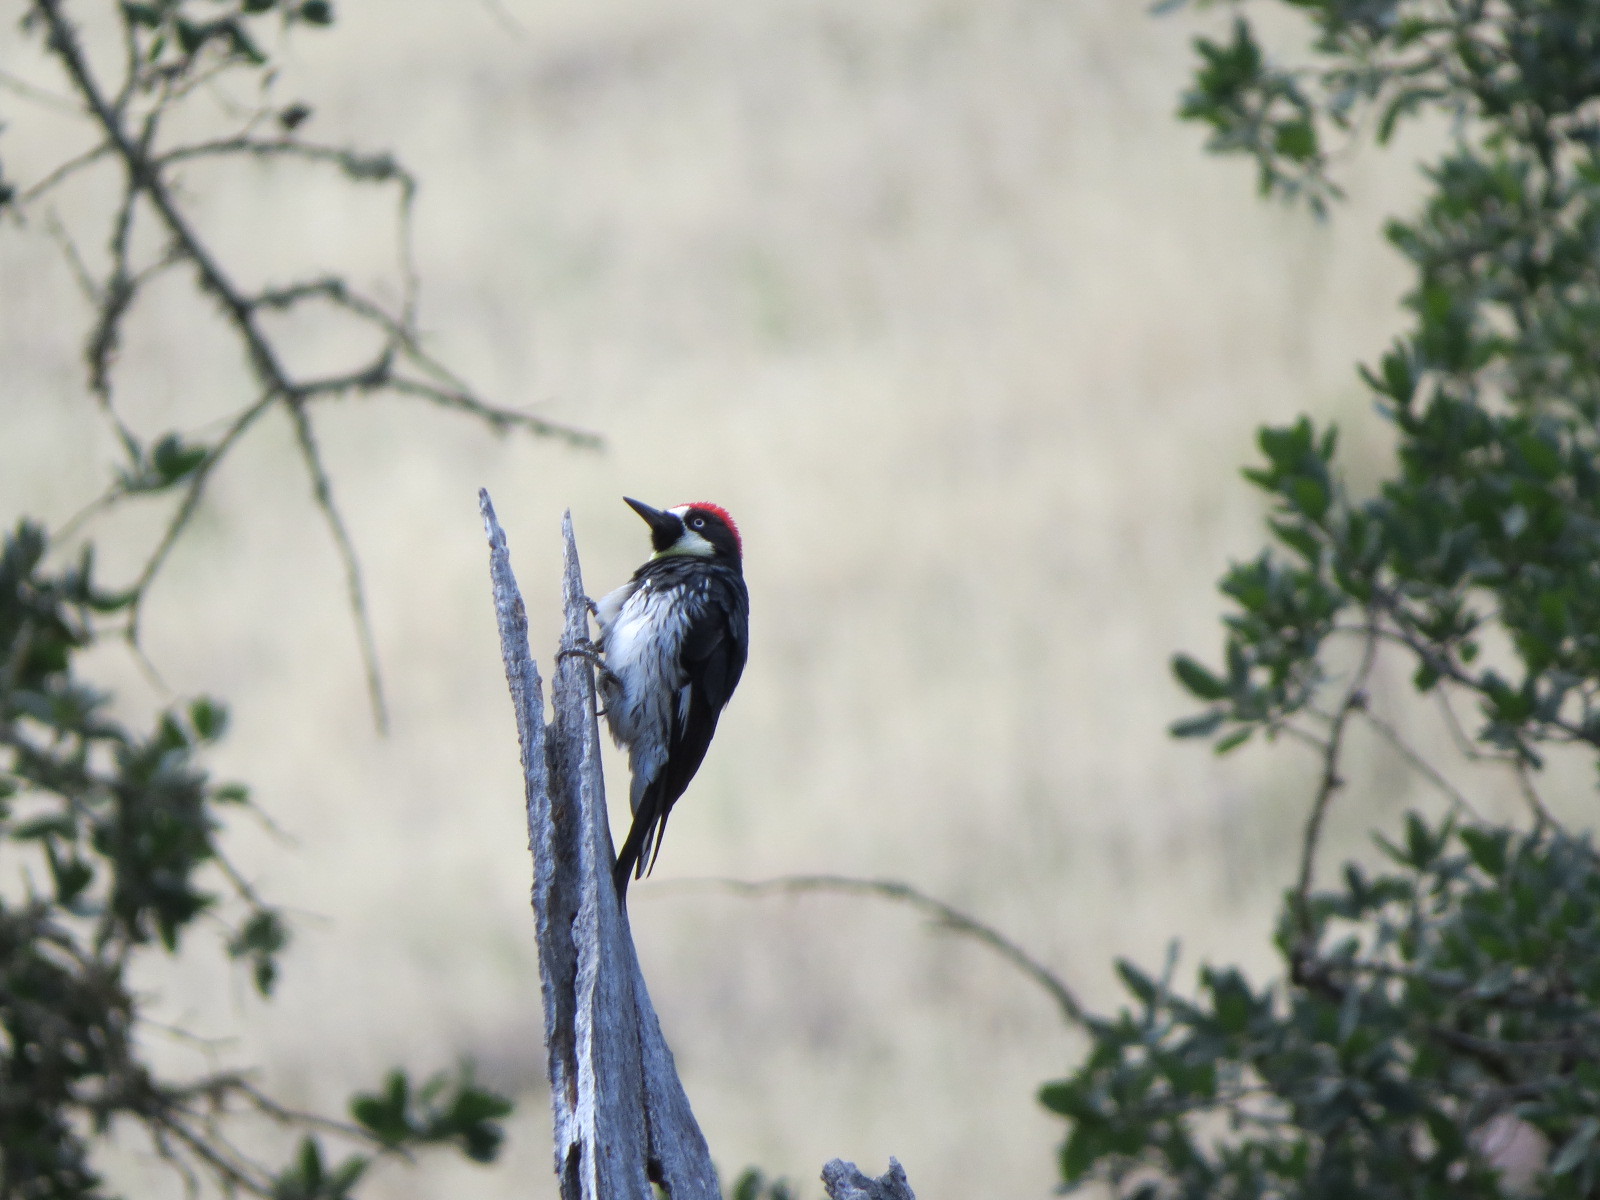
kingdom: Animalia
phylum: Chordata
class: Aves
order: Piciformes
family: Picidae
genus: Melanerpes
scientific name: Melanerpes formicivorus
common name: Acorn woodpecker
